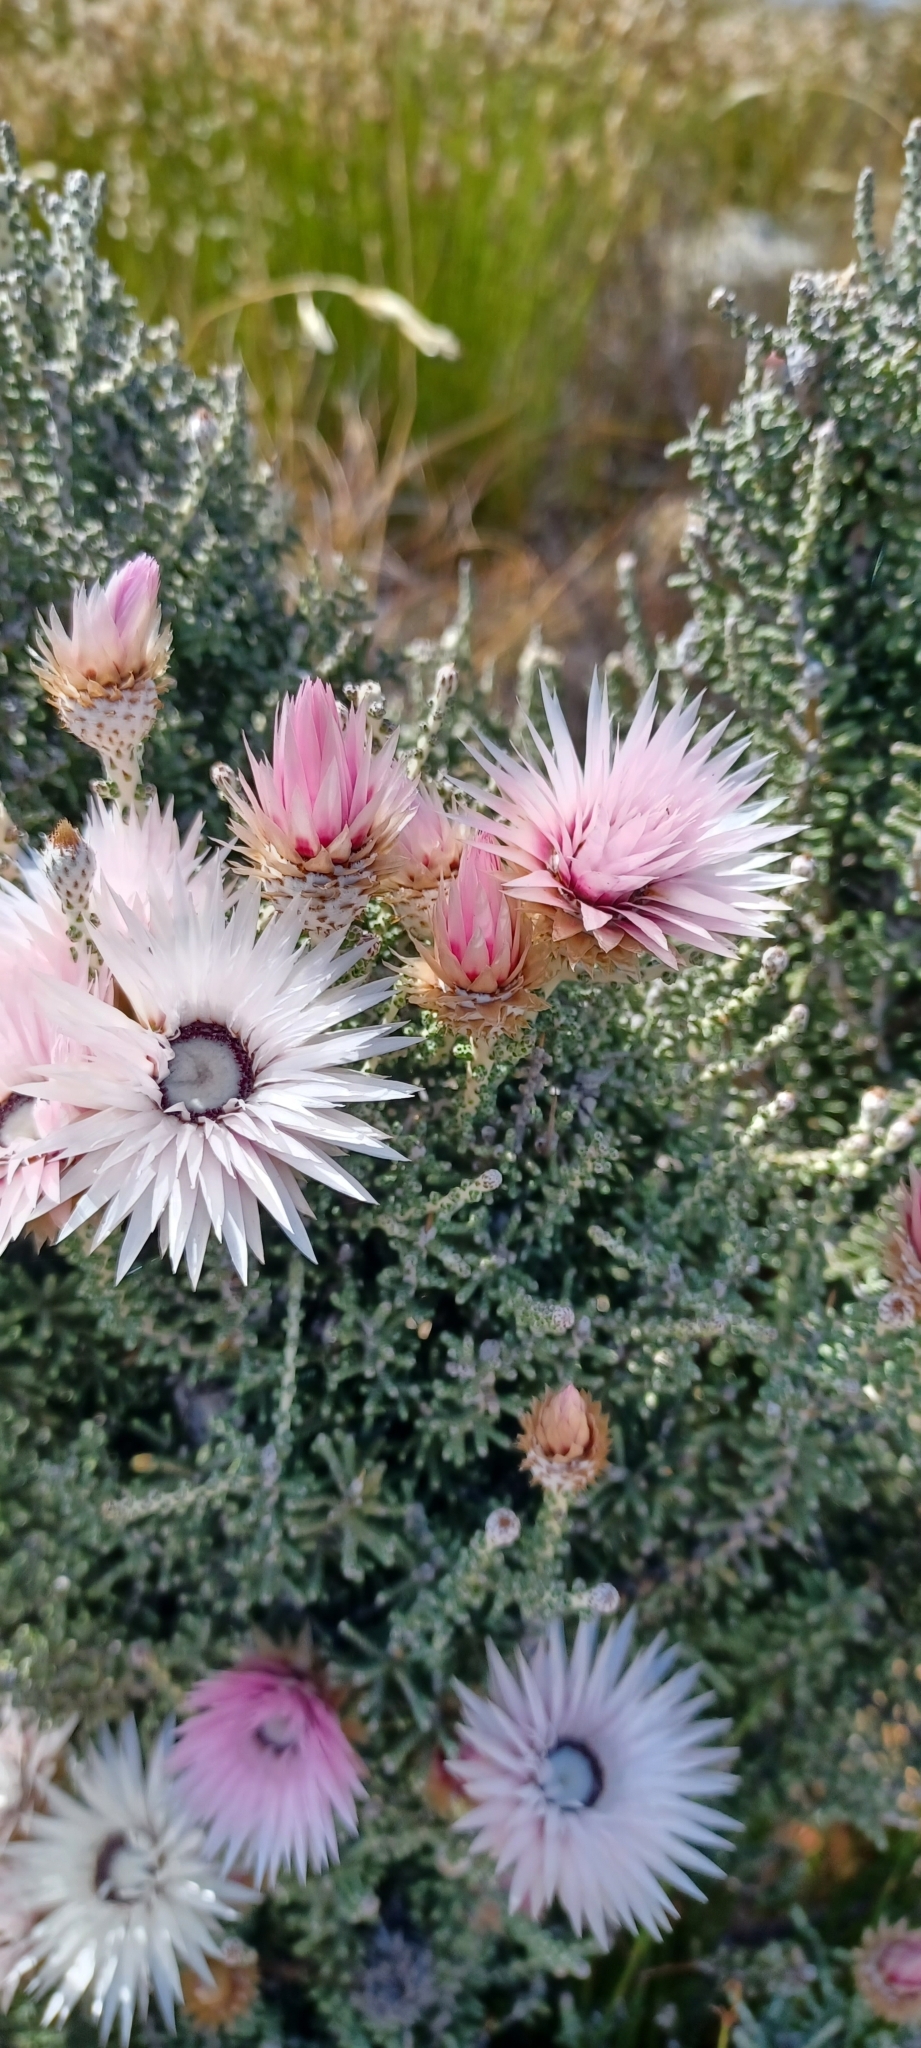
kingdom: Plantae
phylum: Tracheophyta
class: Magnoliopsida
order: Asterales
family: Asteraceae
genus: Phaenocoma
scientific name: Phaenocoma prolifera
